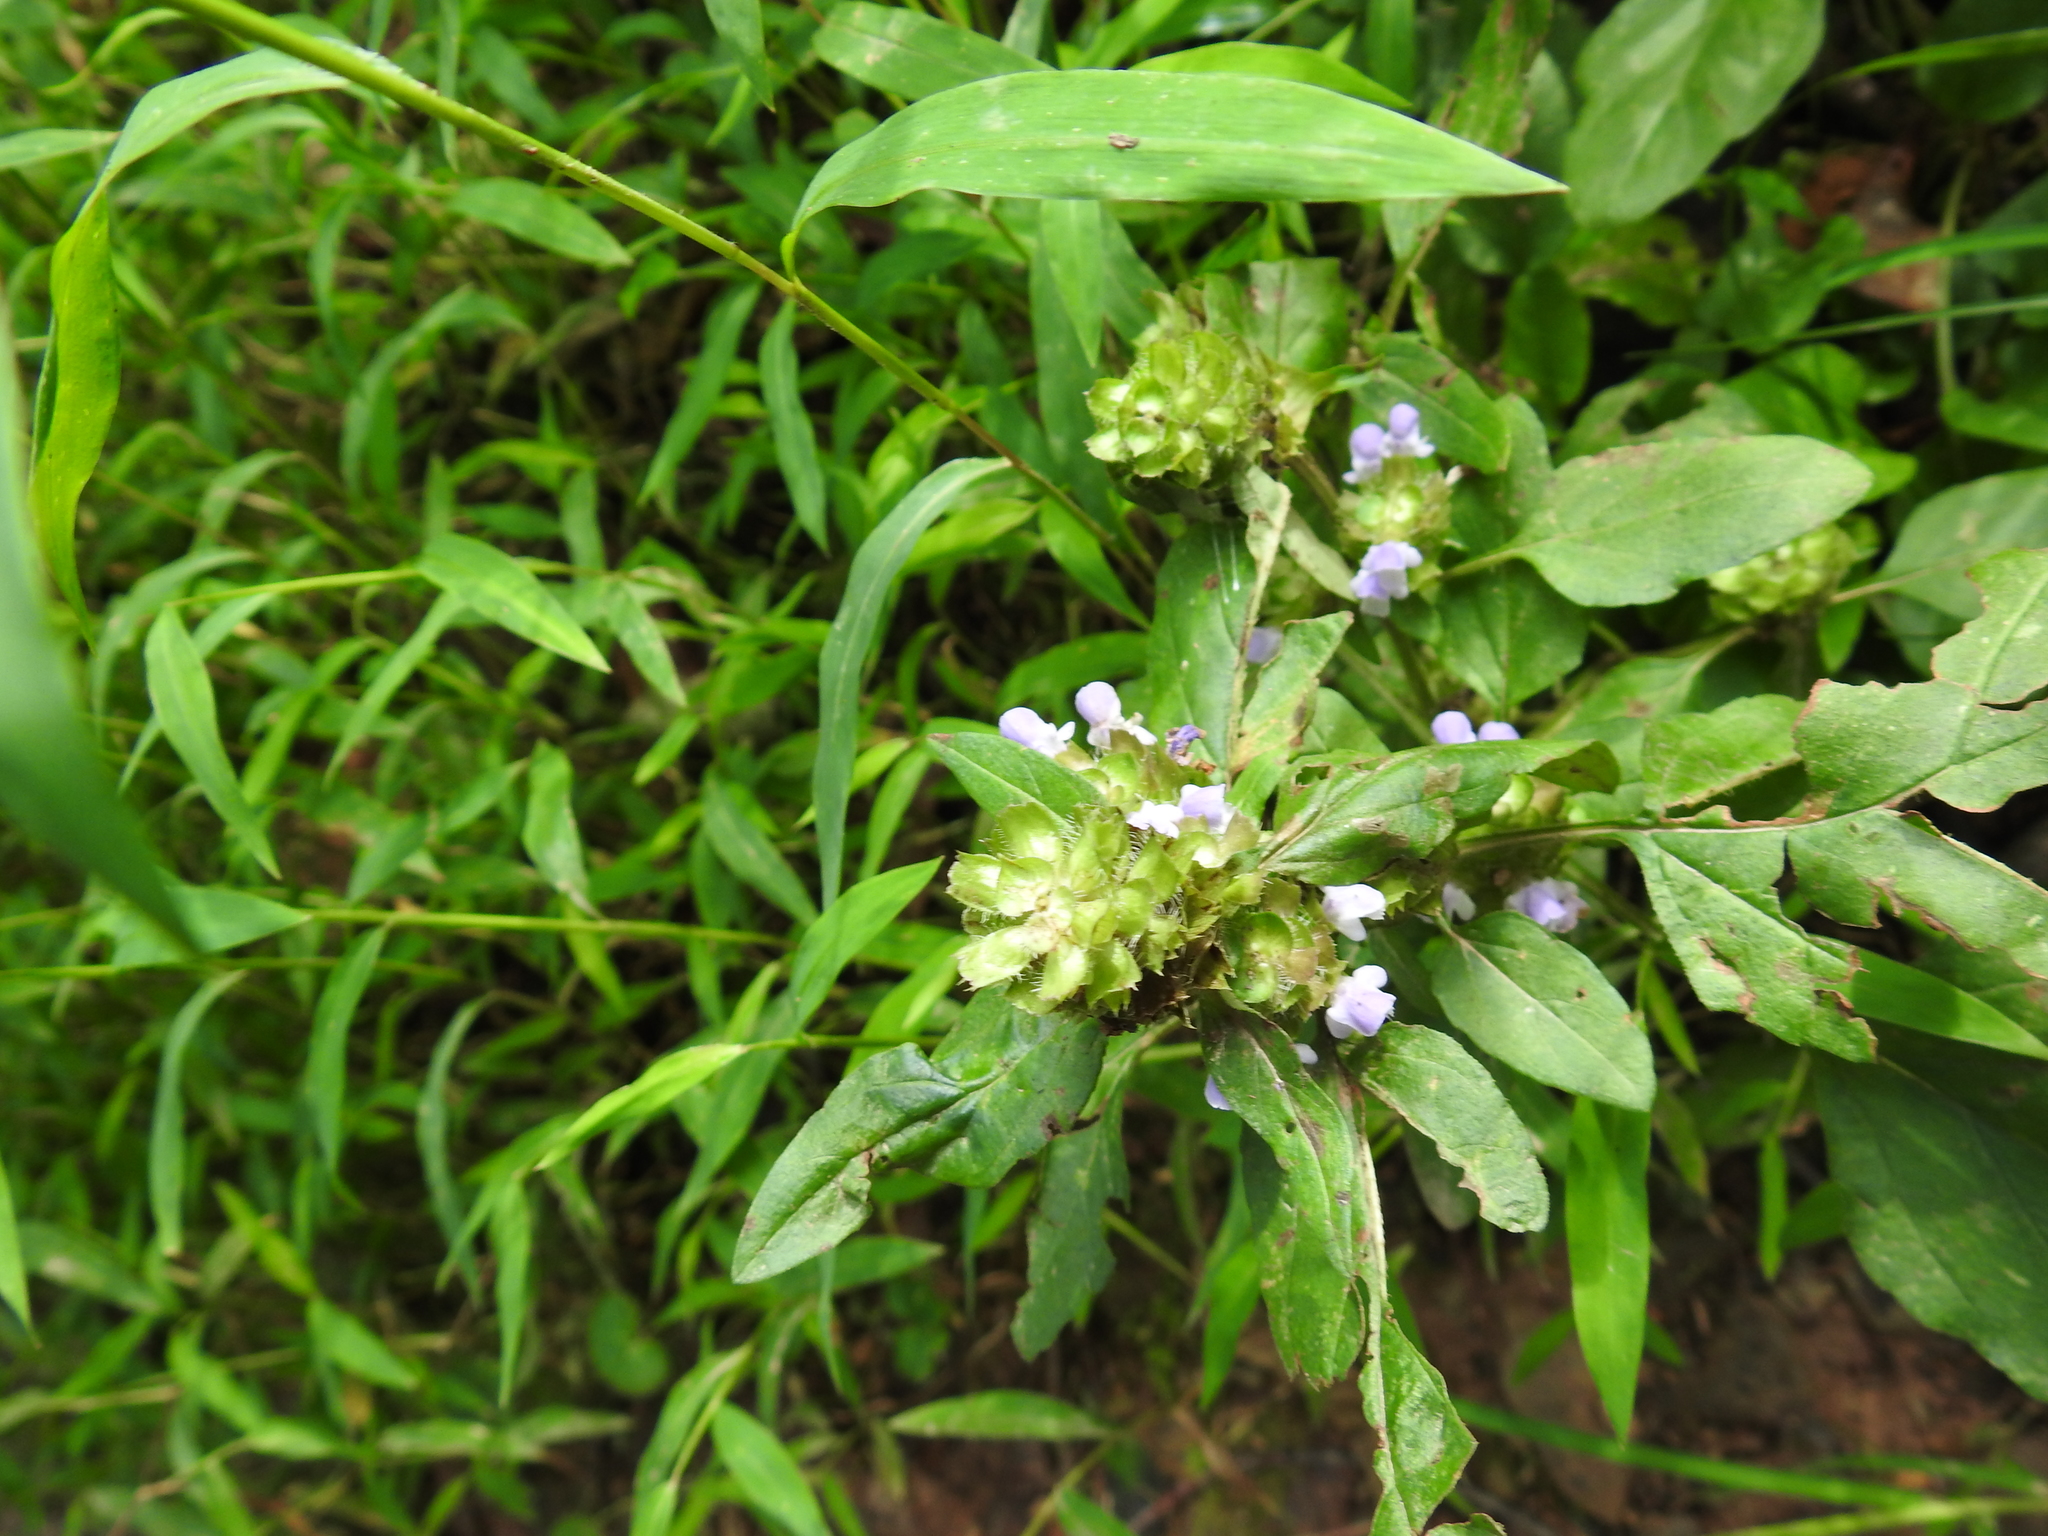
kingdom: Plantae
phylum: Tracheophyta
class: Magnoliopsida
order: Lamiales
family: Lamiaceae
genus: Prunella
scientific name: Prunella vulgaris
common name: Heal-all
